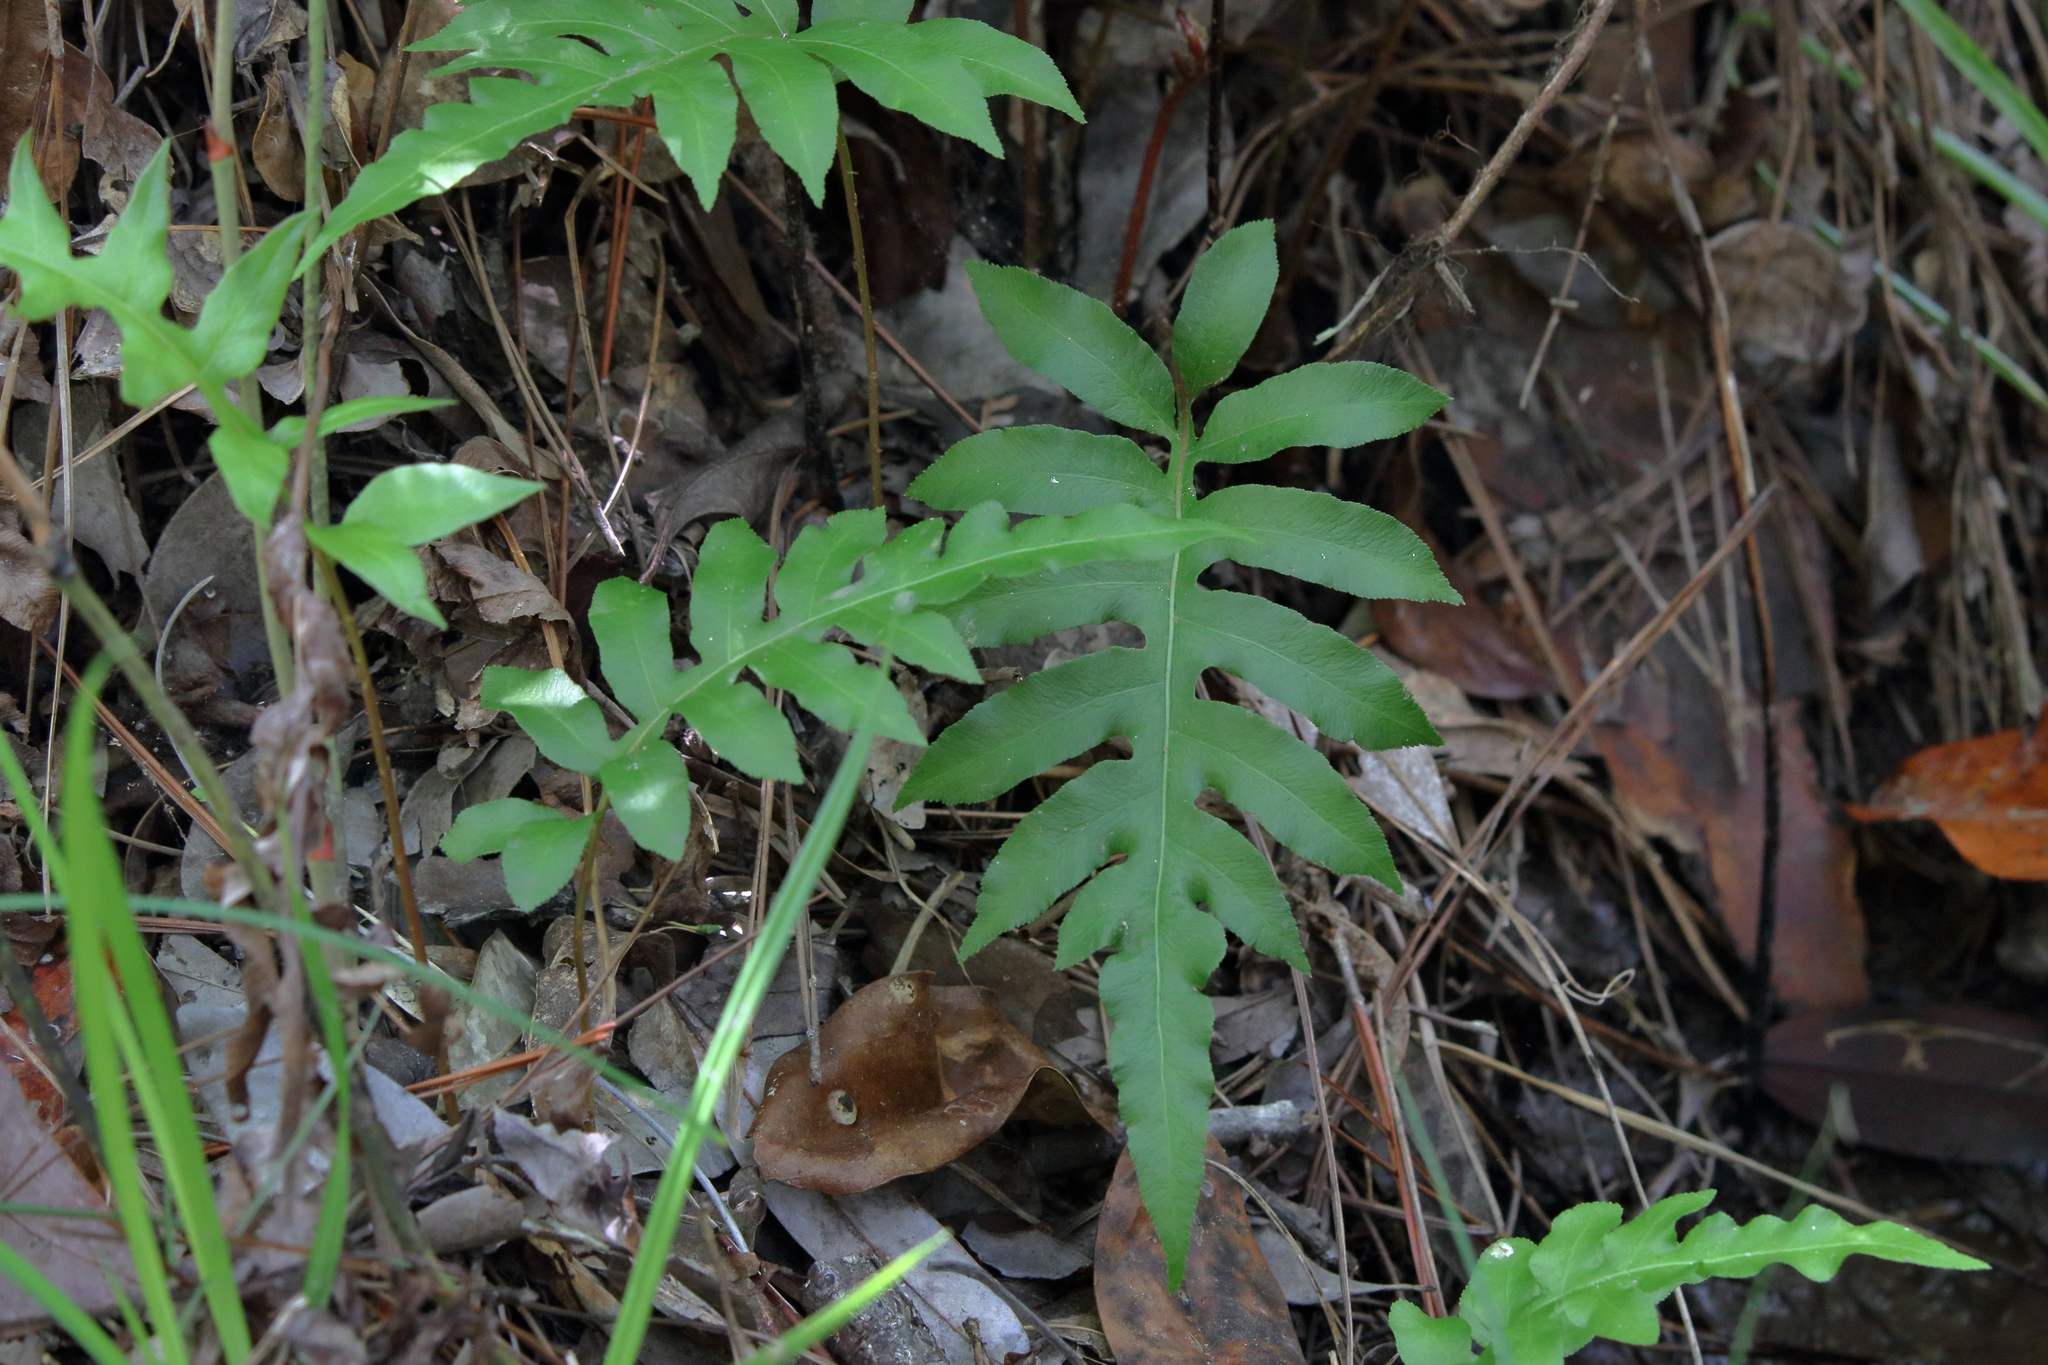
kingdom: Plantae
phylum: Tracheophyta
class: Polypodiopsida
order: Polypodiales
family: Blechnaceae
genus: Lorinseria
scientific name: Lorinseria areolata
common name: Dwarf chain fern
